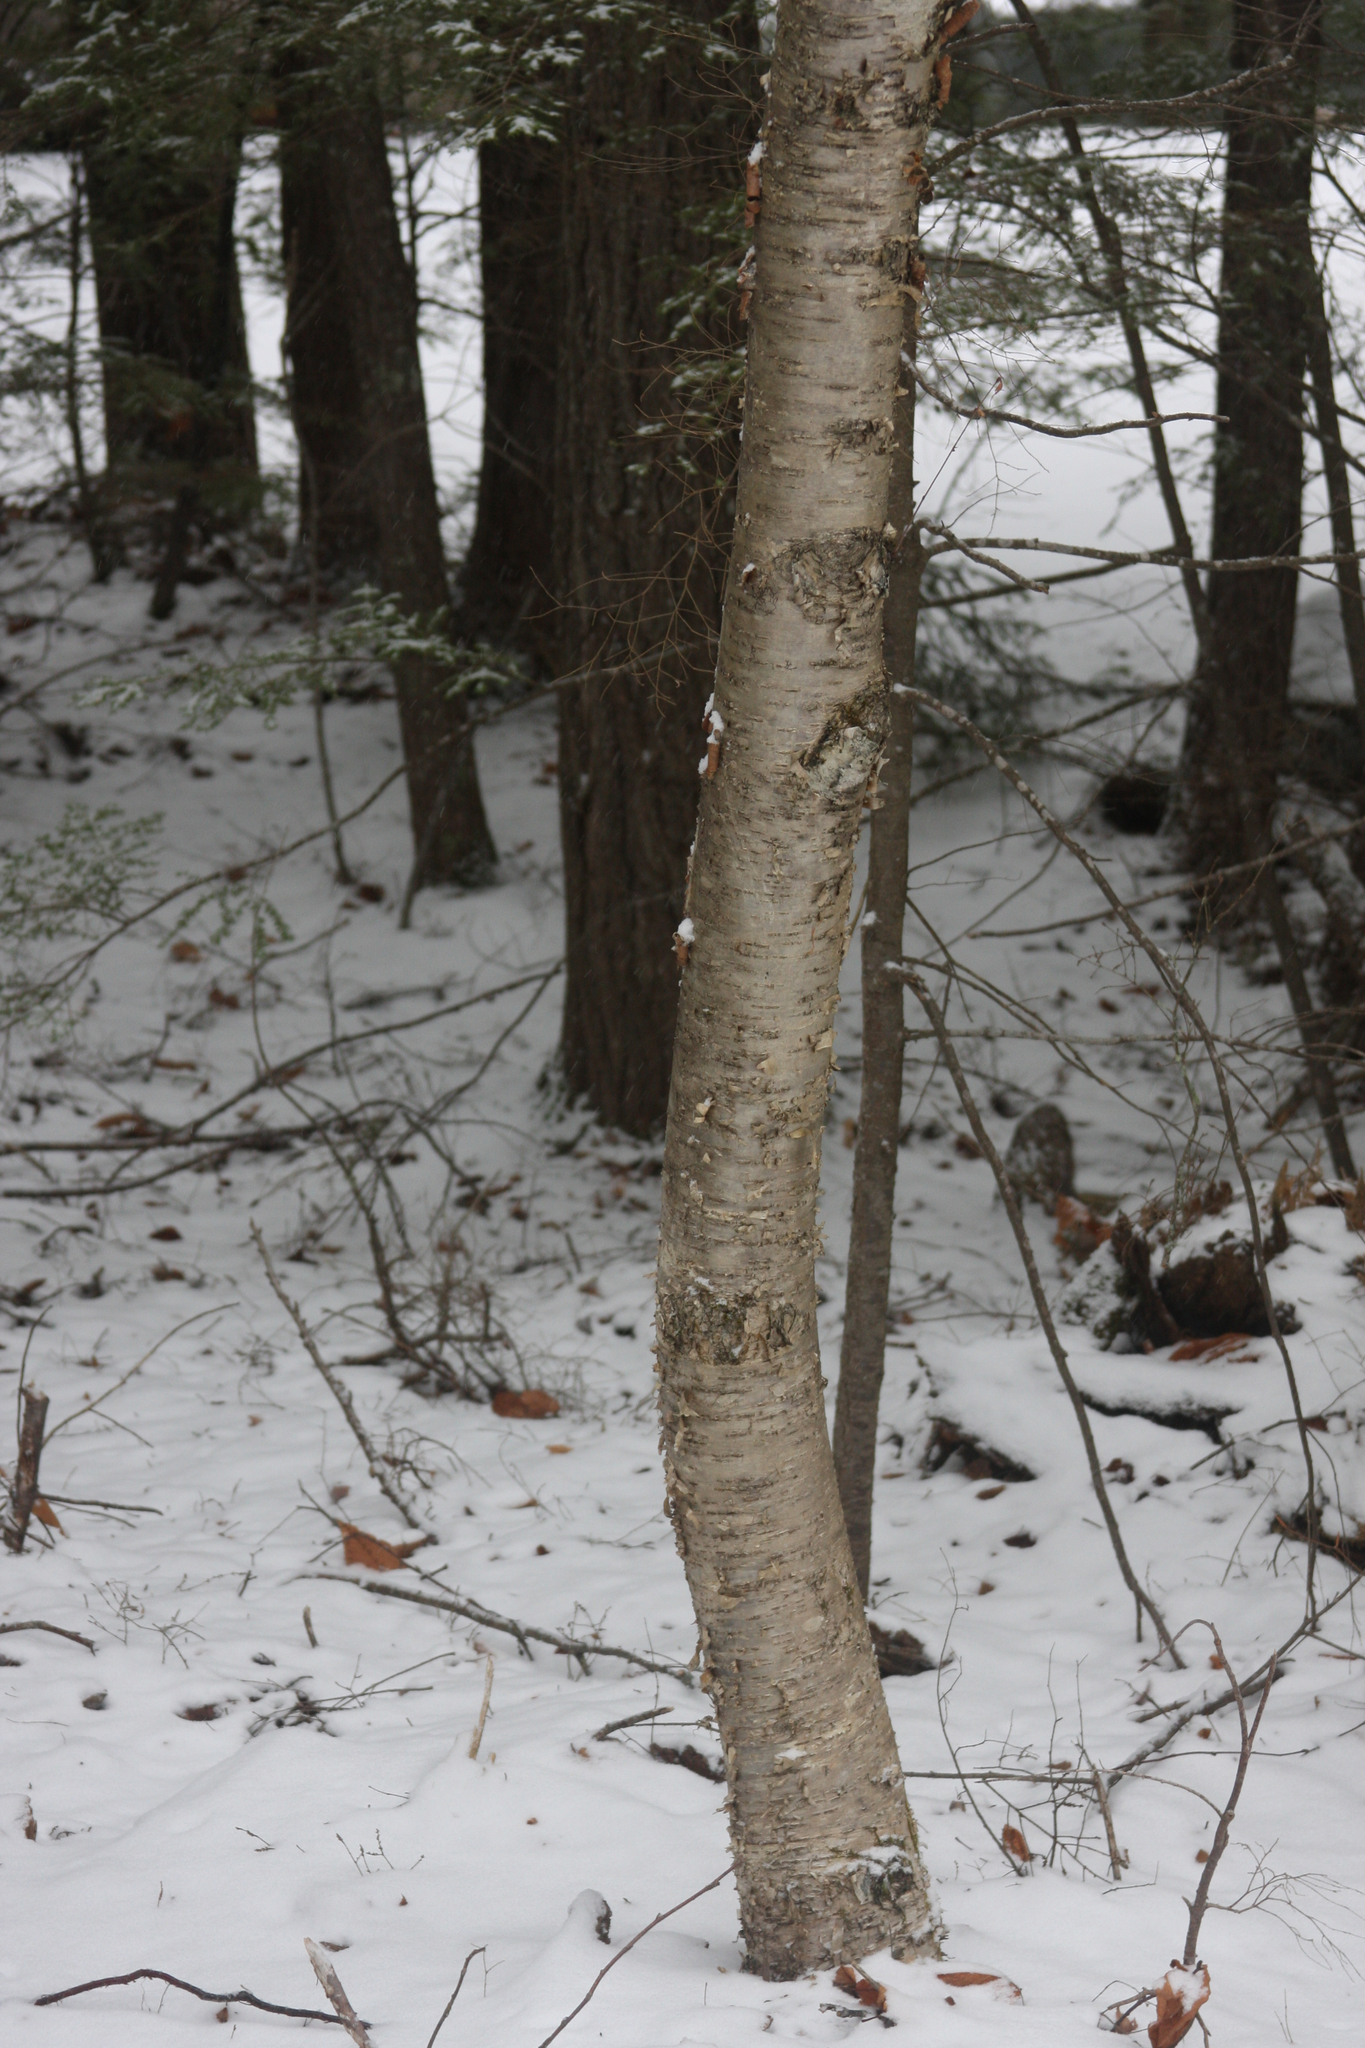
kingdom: Plantae
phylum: Tracheophyta
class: Magnoliopsida
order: Fagales
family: Betulaceae
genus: Betula
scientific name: Betula alleghaniensis
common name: Yellow birch
